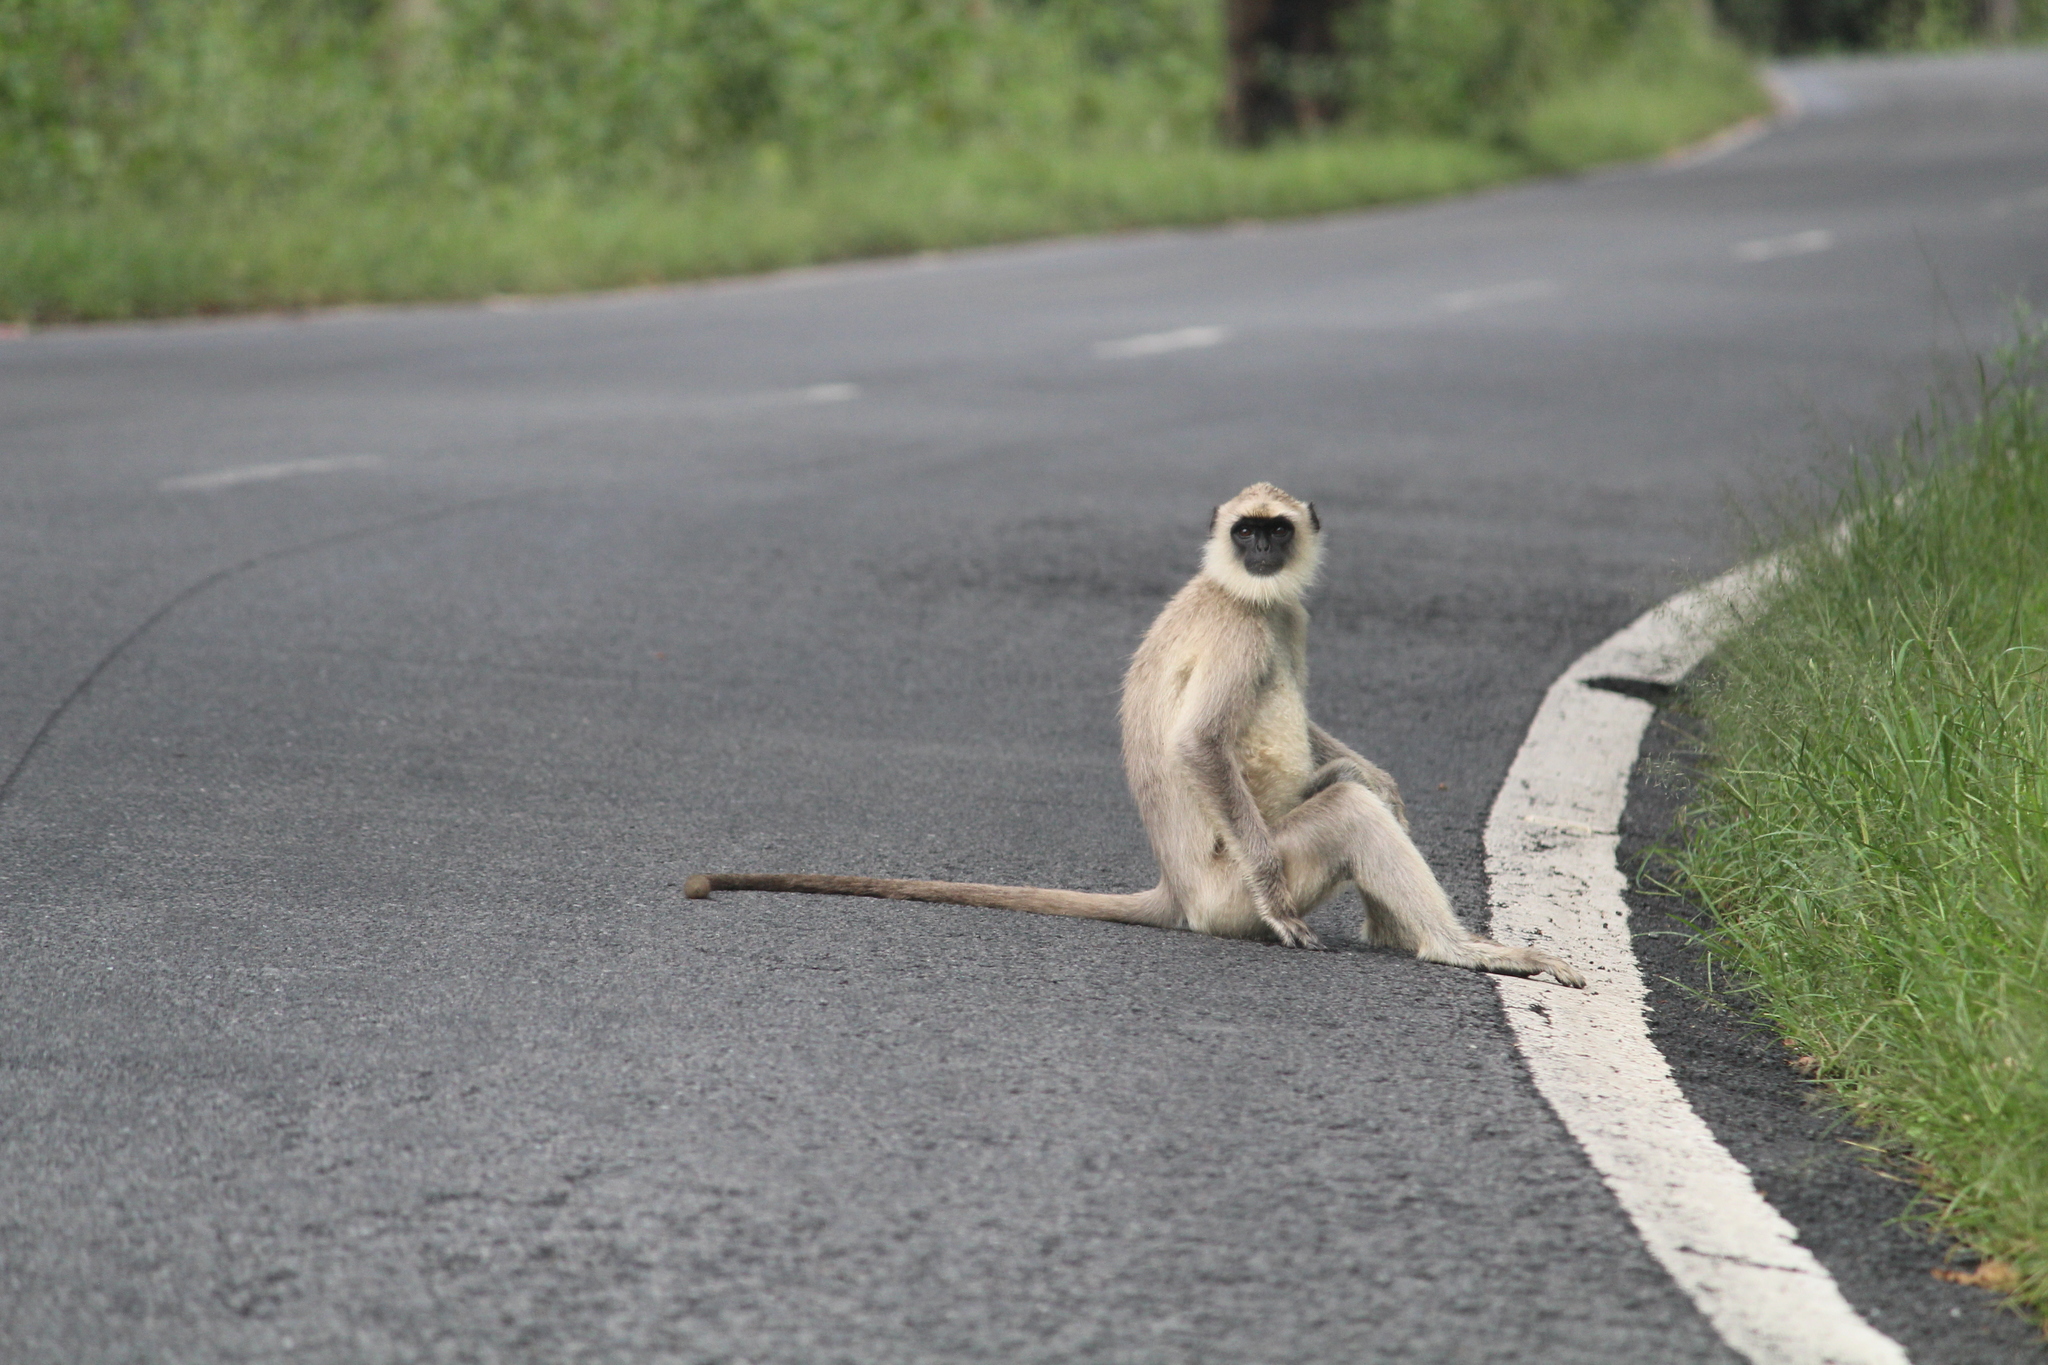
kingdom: Animalia
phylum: Chordata
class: Mammalia
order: Primates
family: Cercopithecidae
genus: Semnopithecus
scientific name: Semnopithecus priam
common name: Tufted gray langur
